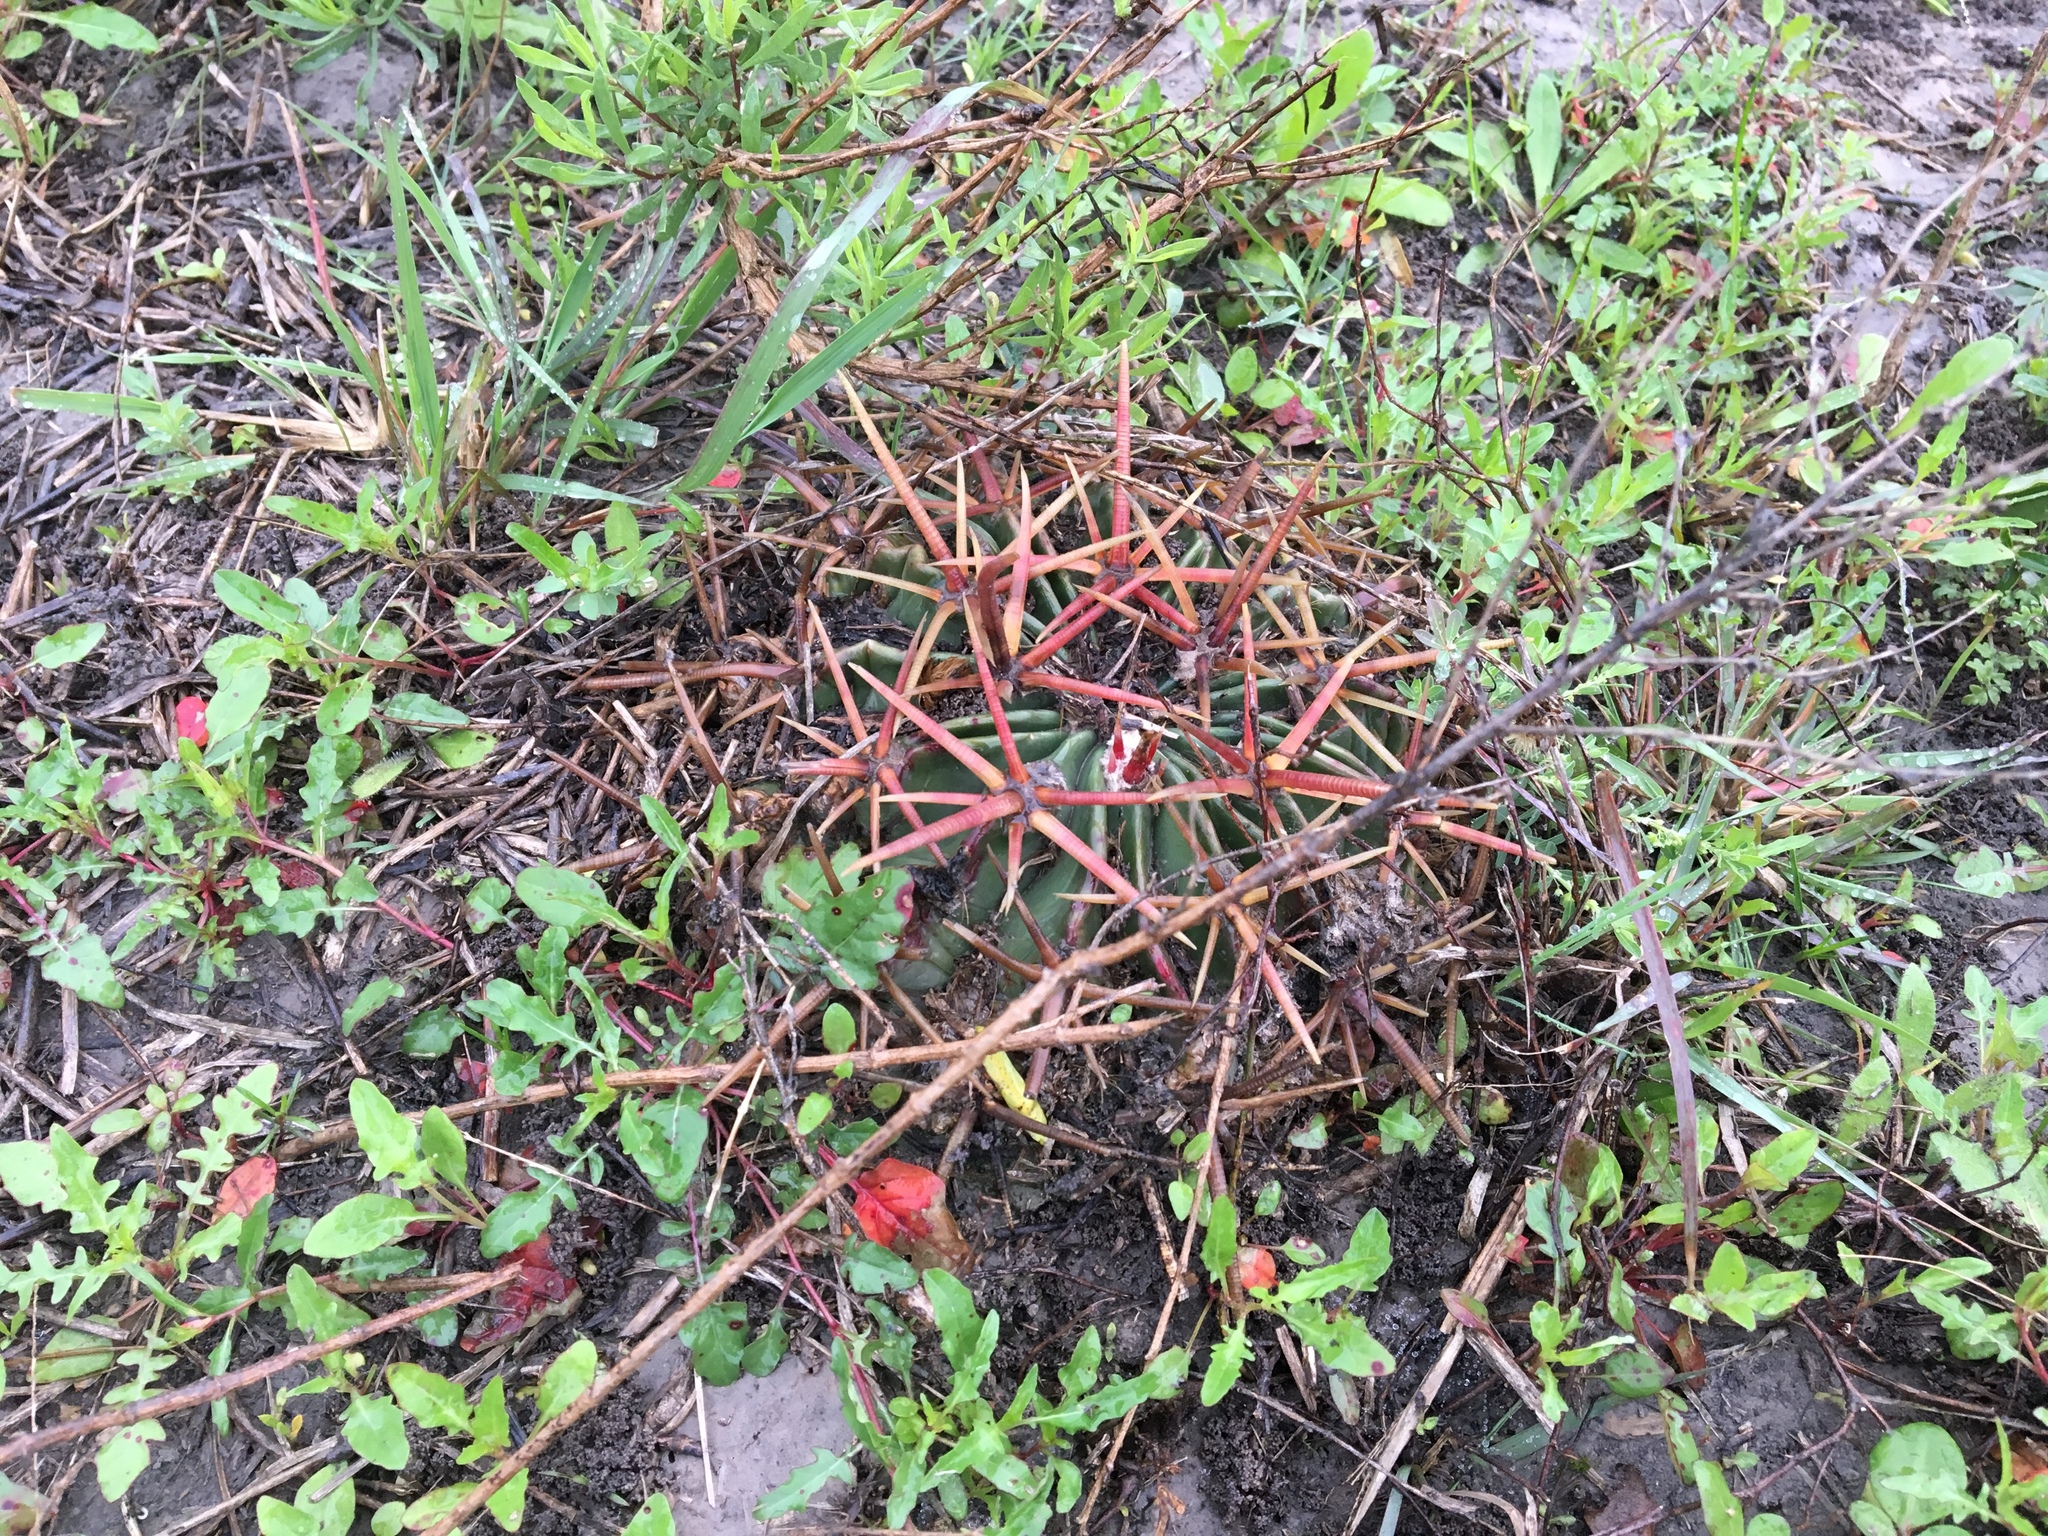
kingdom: Plantae
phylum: Tracheophyta
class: Magnoliopsida
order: Caryophyllales
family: Cactaceae
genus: Echinocactus
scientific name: Echinocactus texensis
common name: Devil's pincushion
